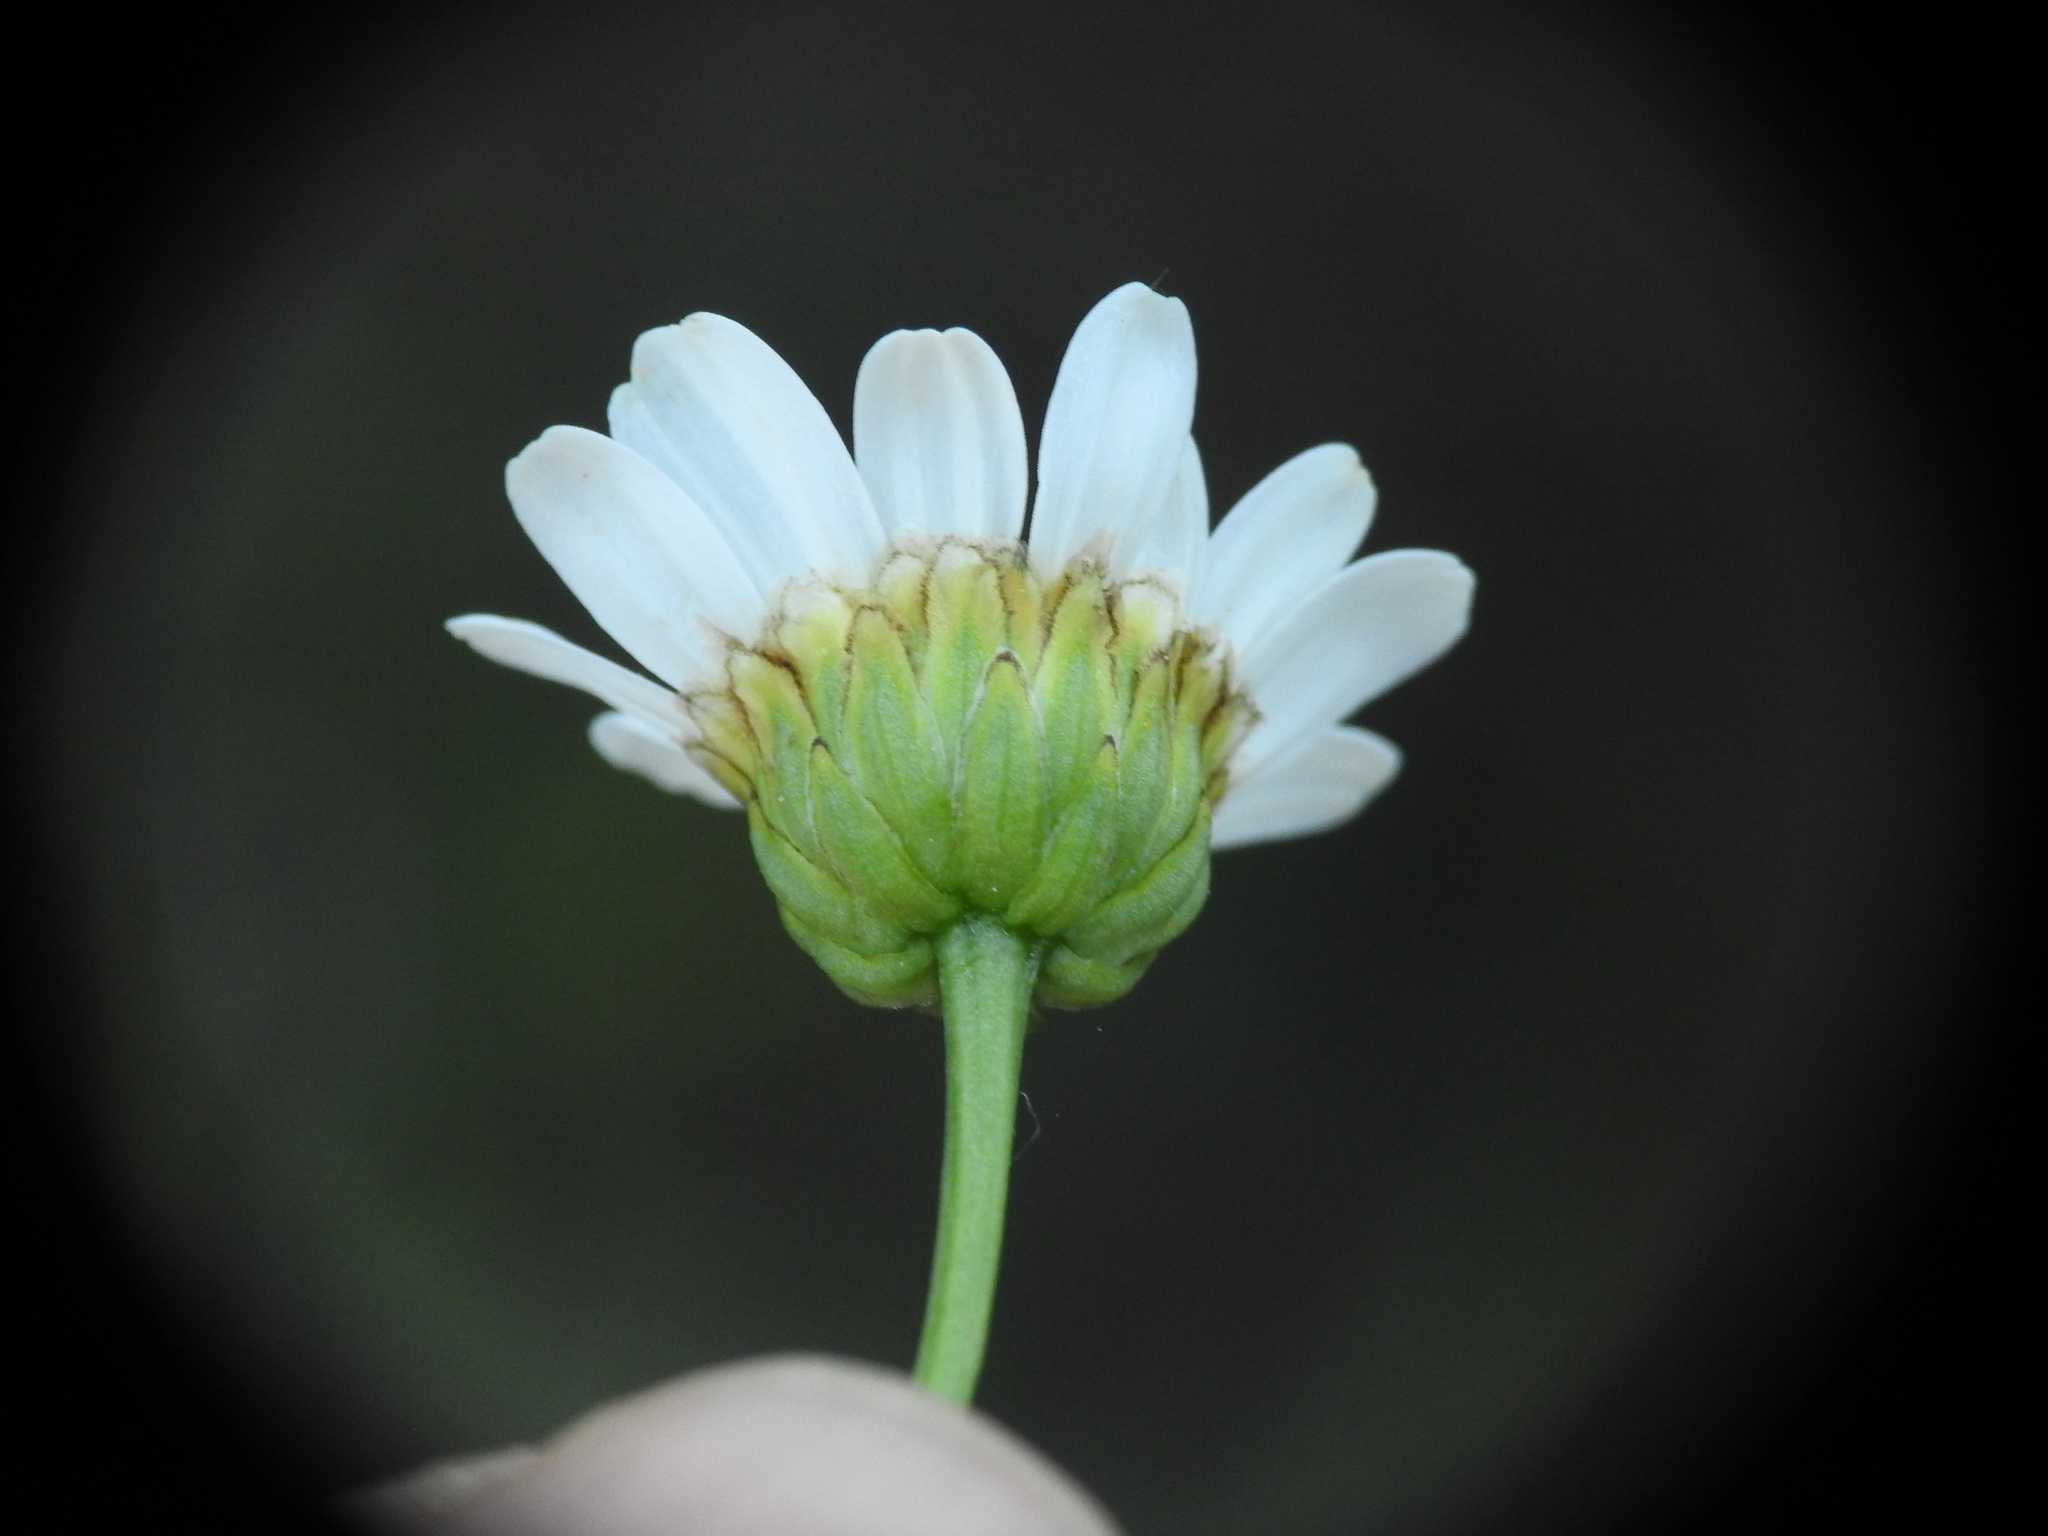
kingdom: Plantae
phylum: Tracheophyta
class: Magnoliopsida
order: Asterales
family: Asteraceae
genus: Leucanthemum
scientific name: Leucanthemum graminifolium
